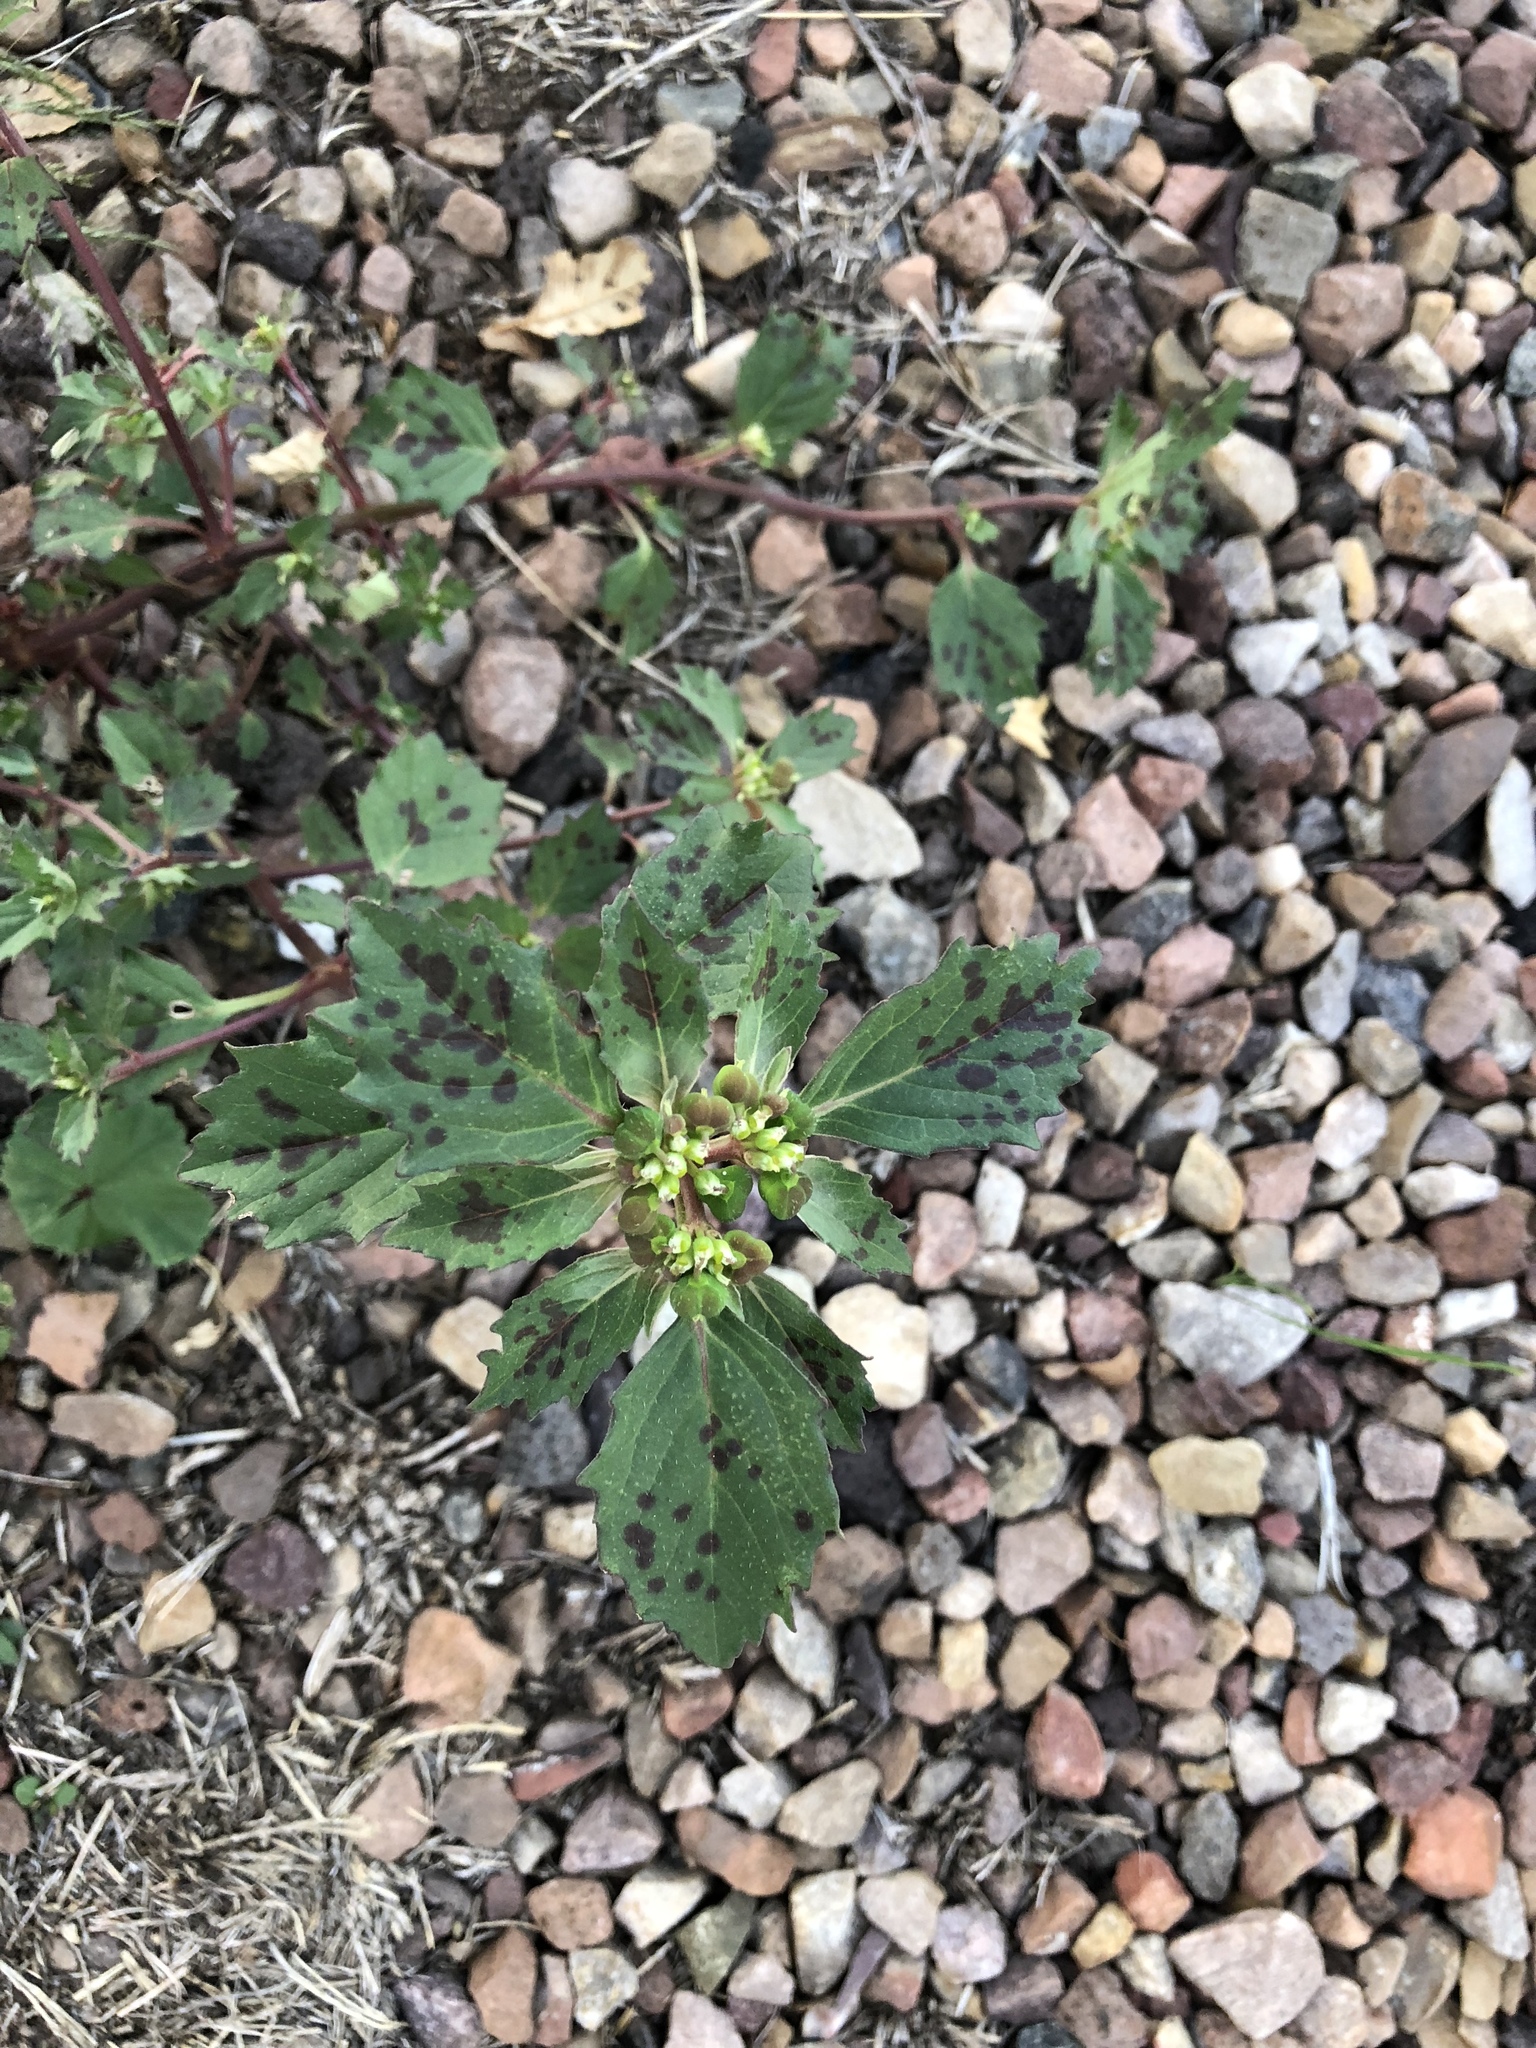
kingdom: Plantae
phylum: Tracheophyta
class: Magnoliopsida
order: Malpighiales
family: Euphorbiaceae
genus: Euphorbia
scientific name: Euphorbia davidii
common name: David's spurge
